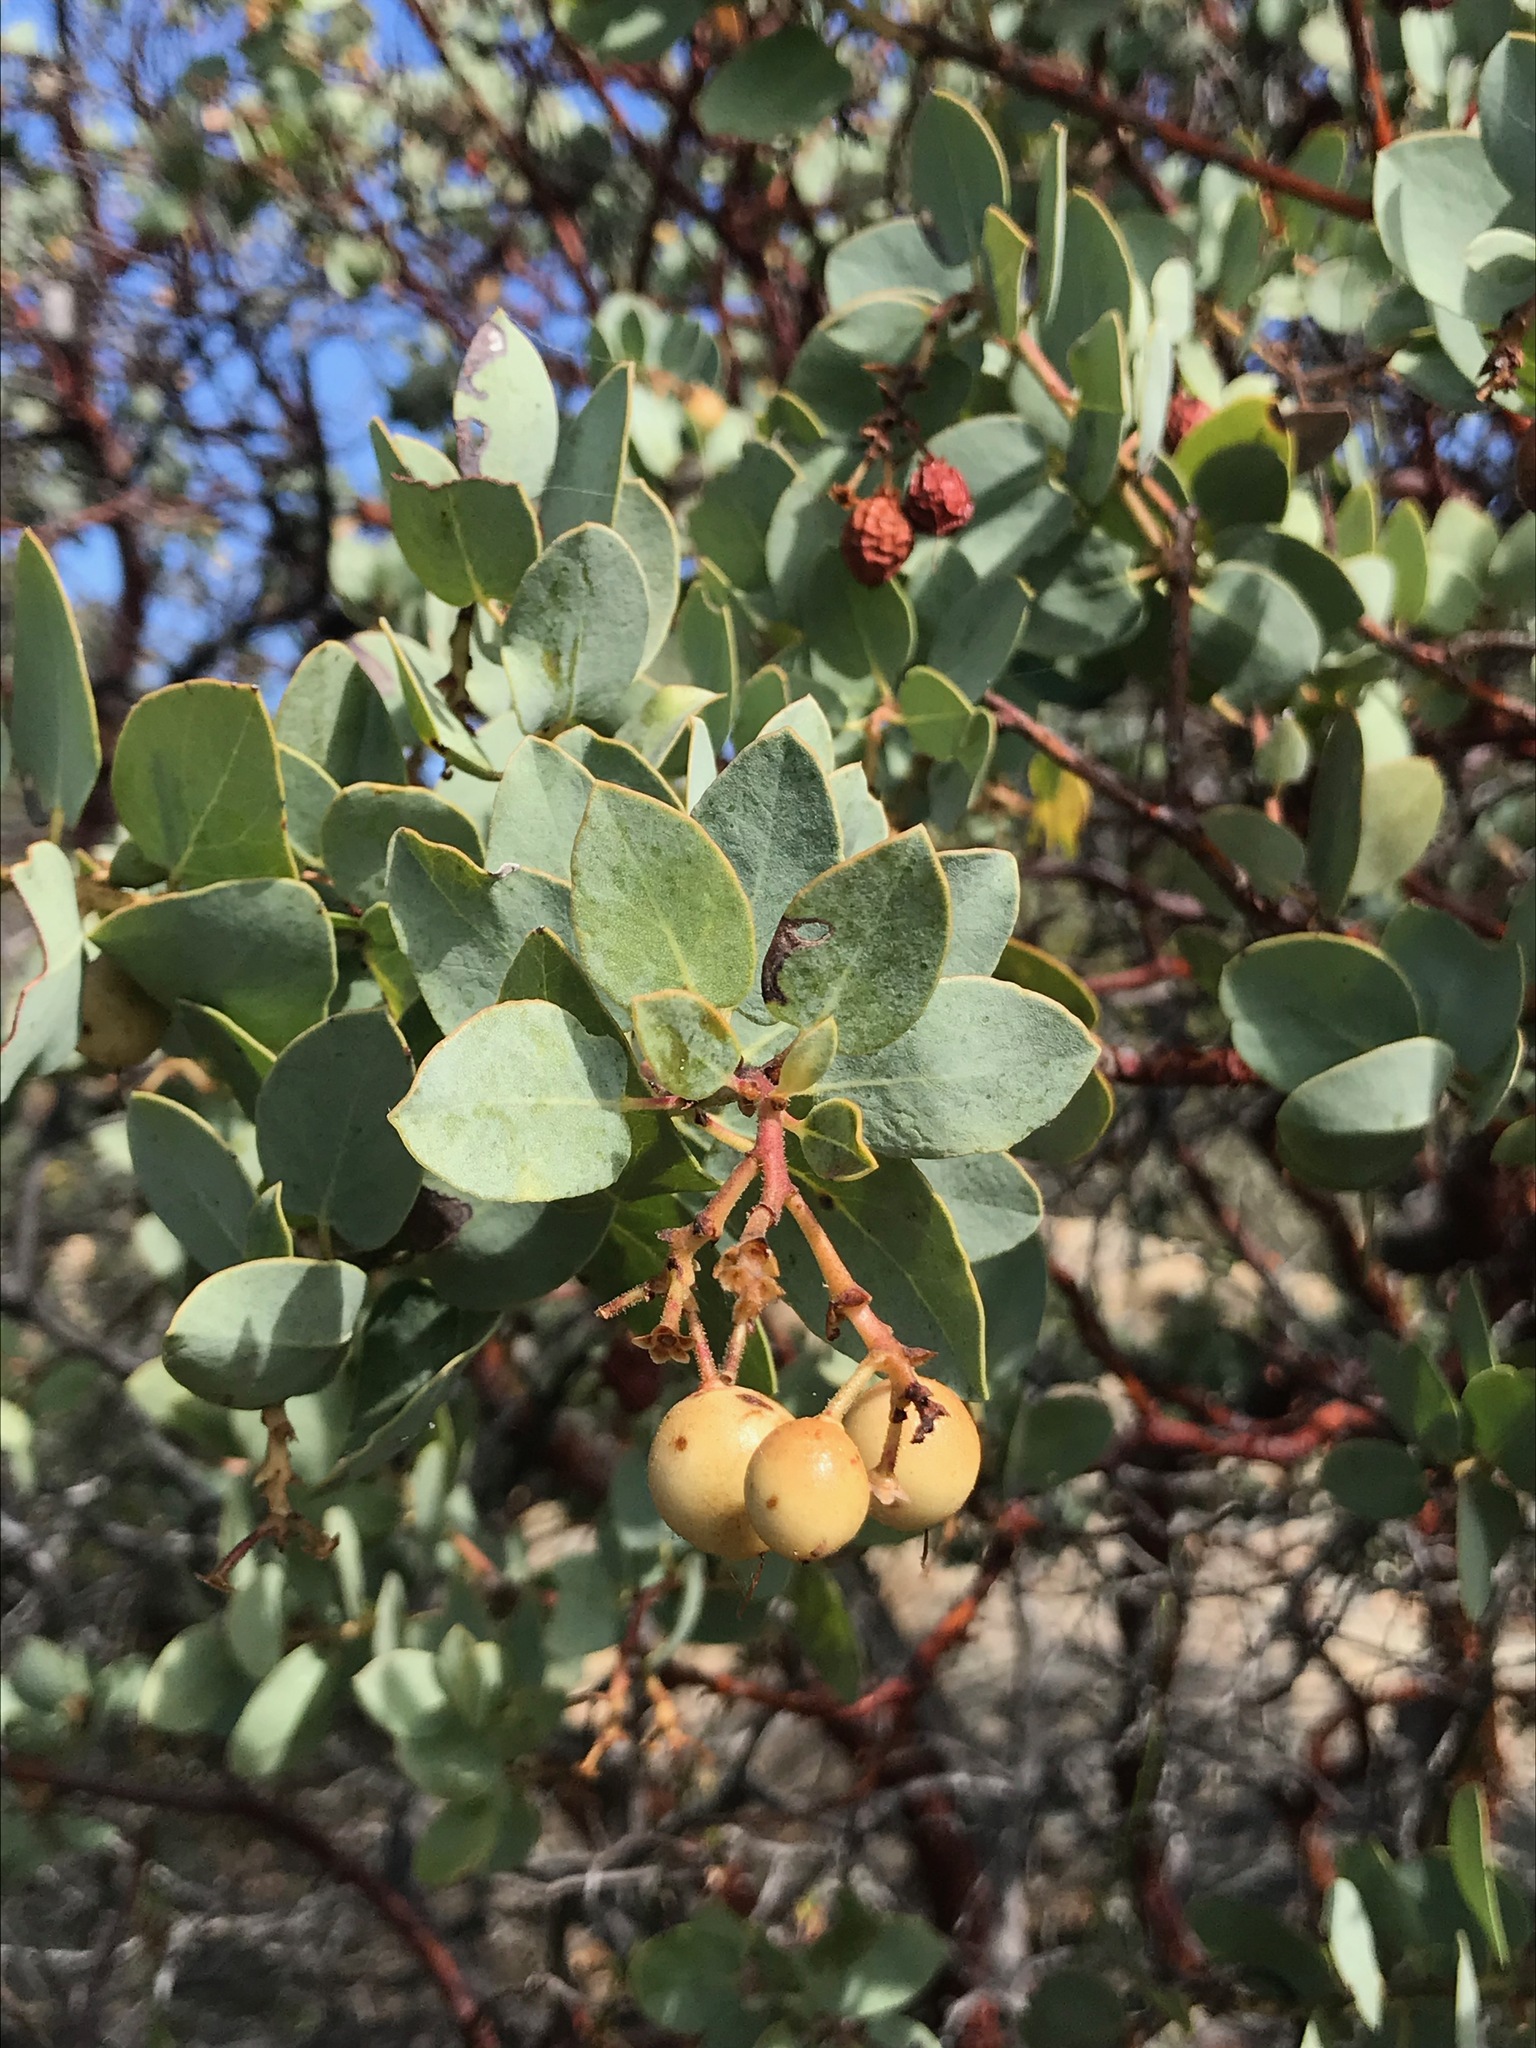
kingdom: Plantae
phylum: Tracheophyta
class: Magnoliopsida
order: Ericales
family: Ericaceae
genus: Arctostaphylos
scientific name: Arctostaphylos glauca
